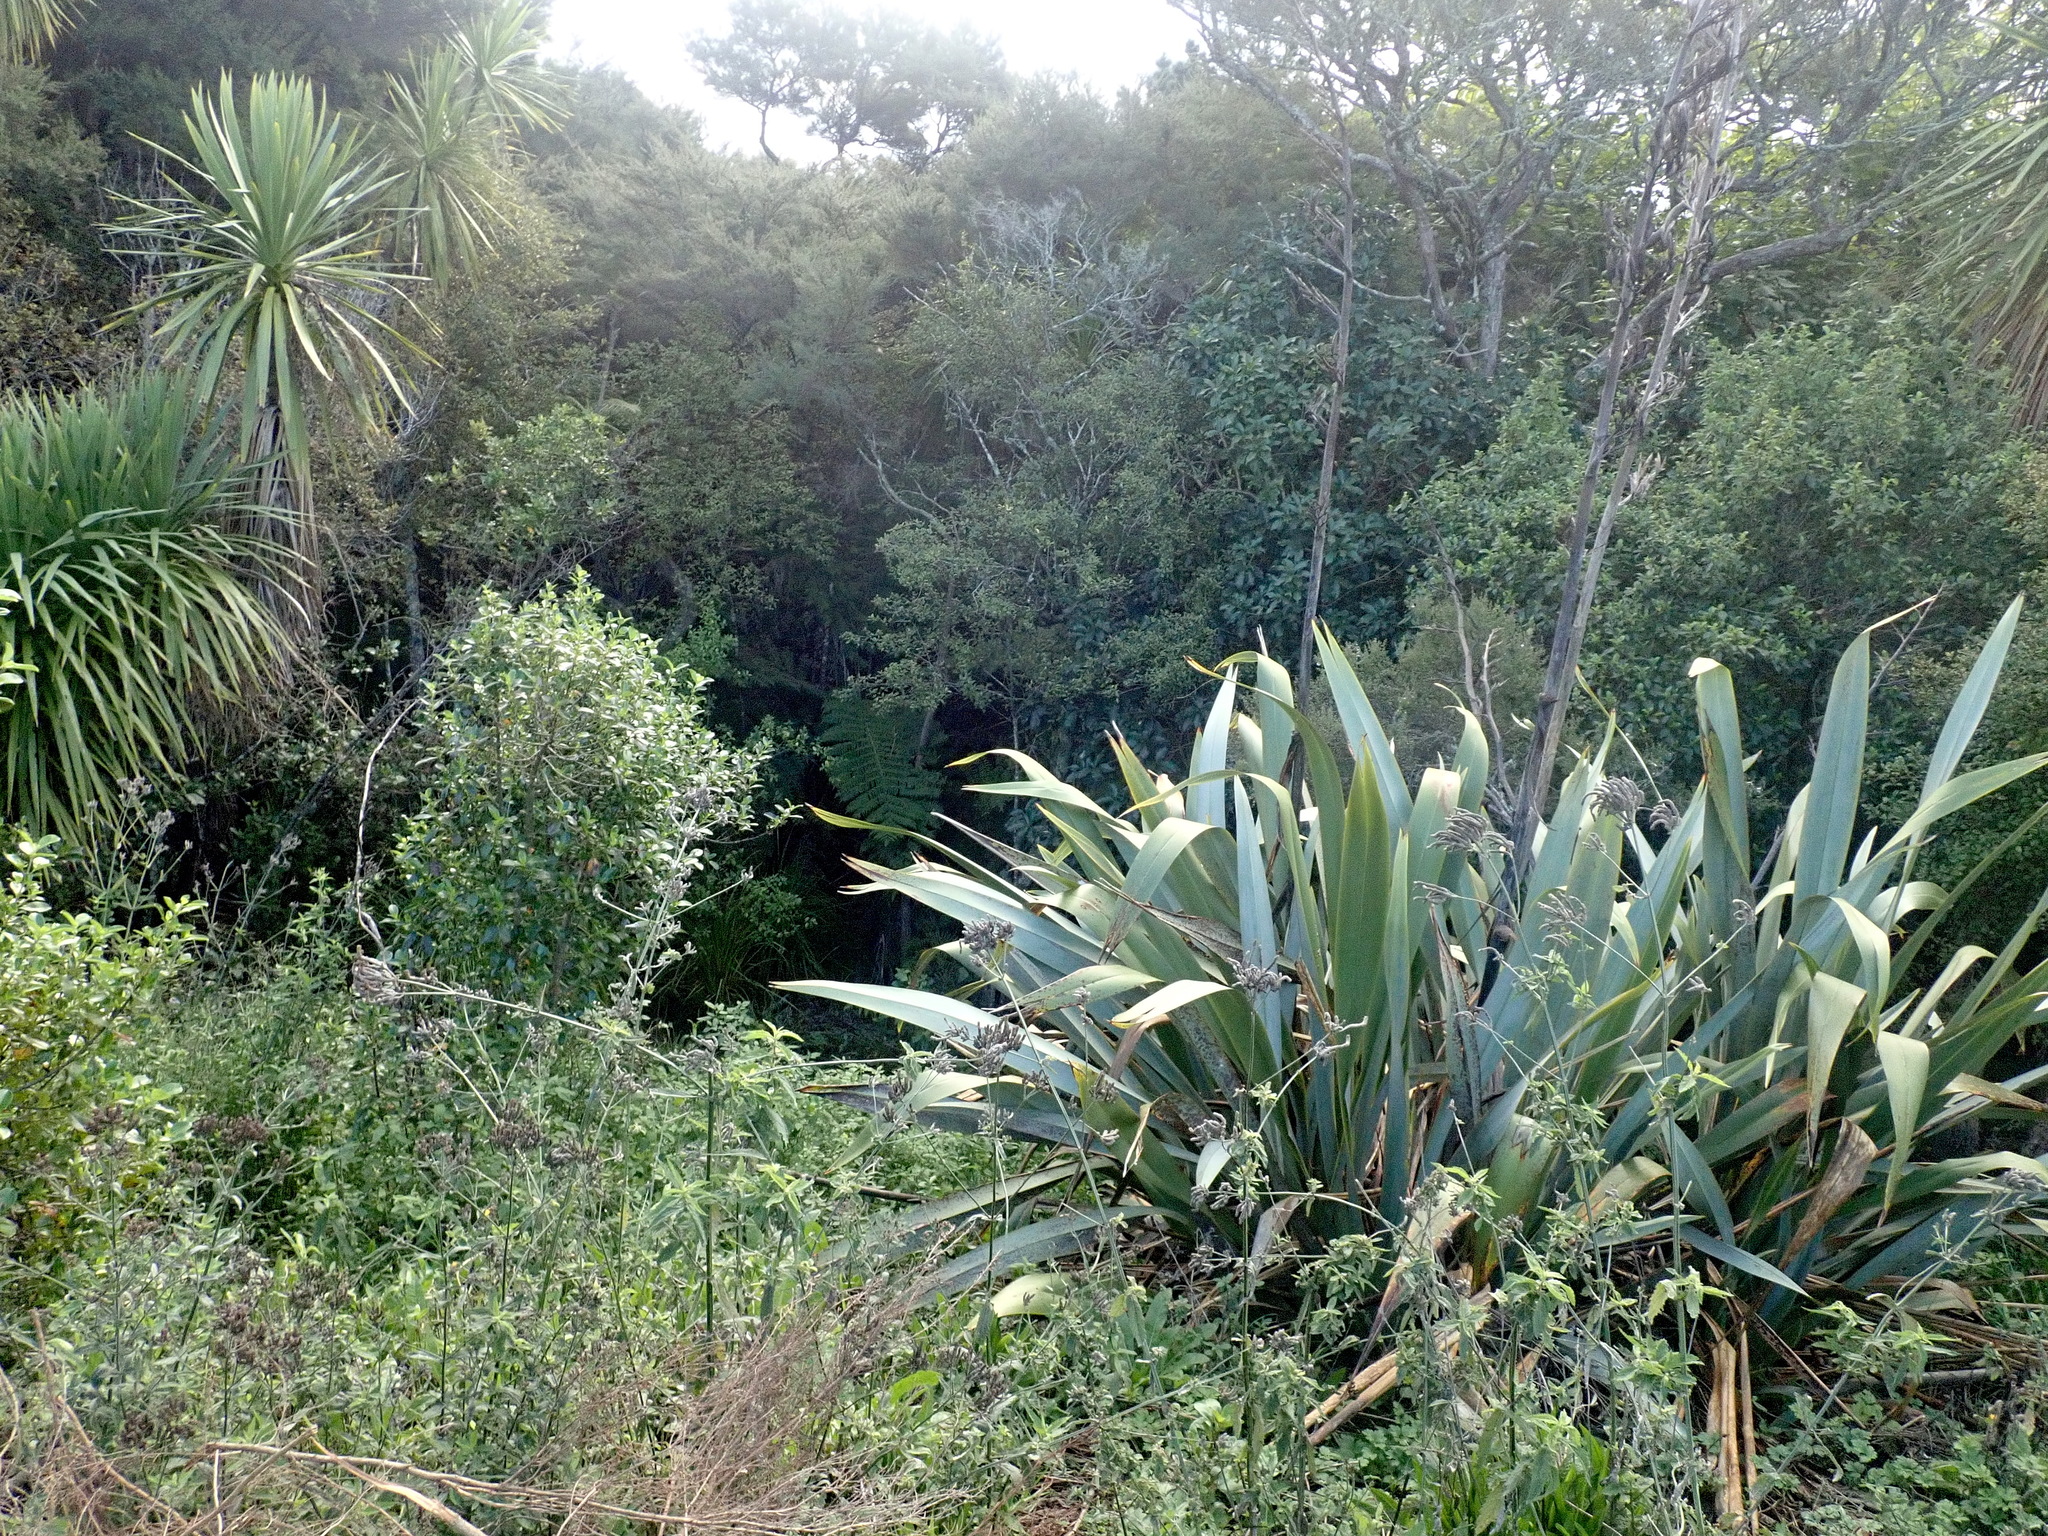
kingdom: Plantae
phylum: Tracheophyta
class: Magnoliopsida
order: Lamiales
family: Verbenaceae
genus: Verbena
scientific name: Verbena incompta
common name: Purpletop vervain
